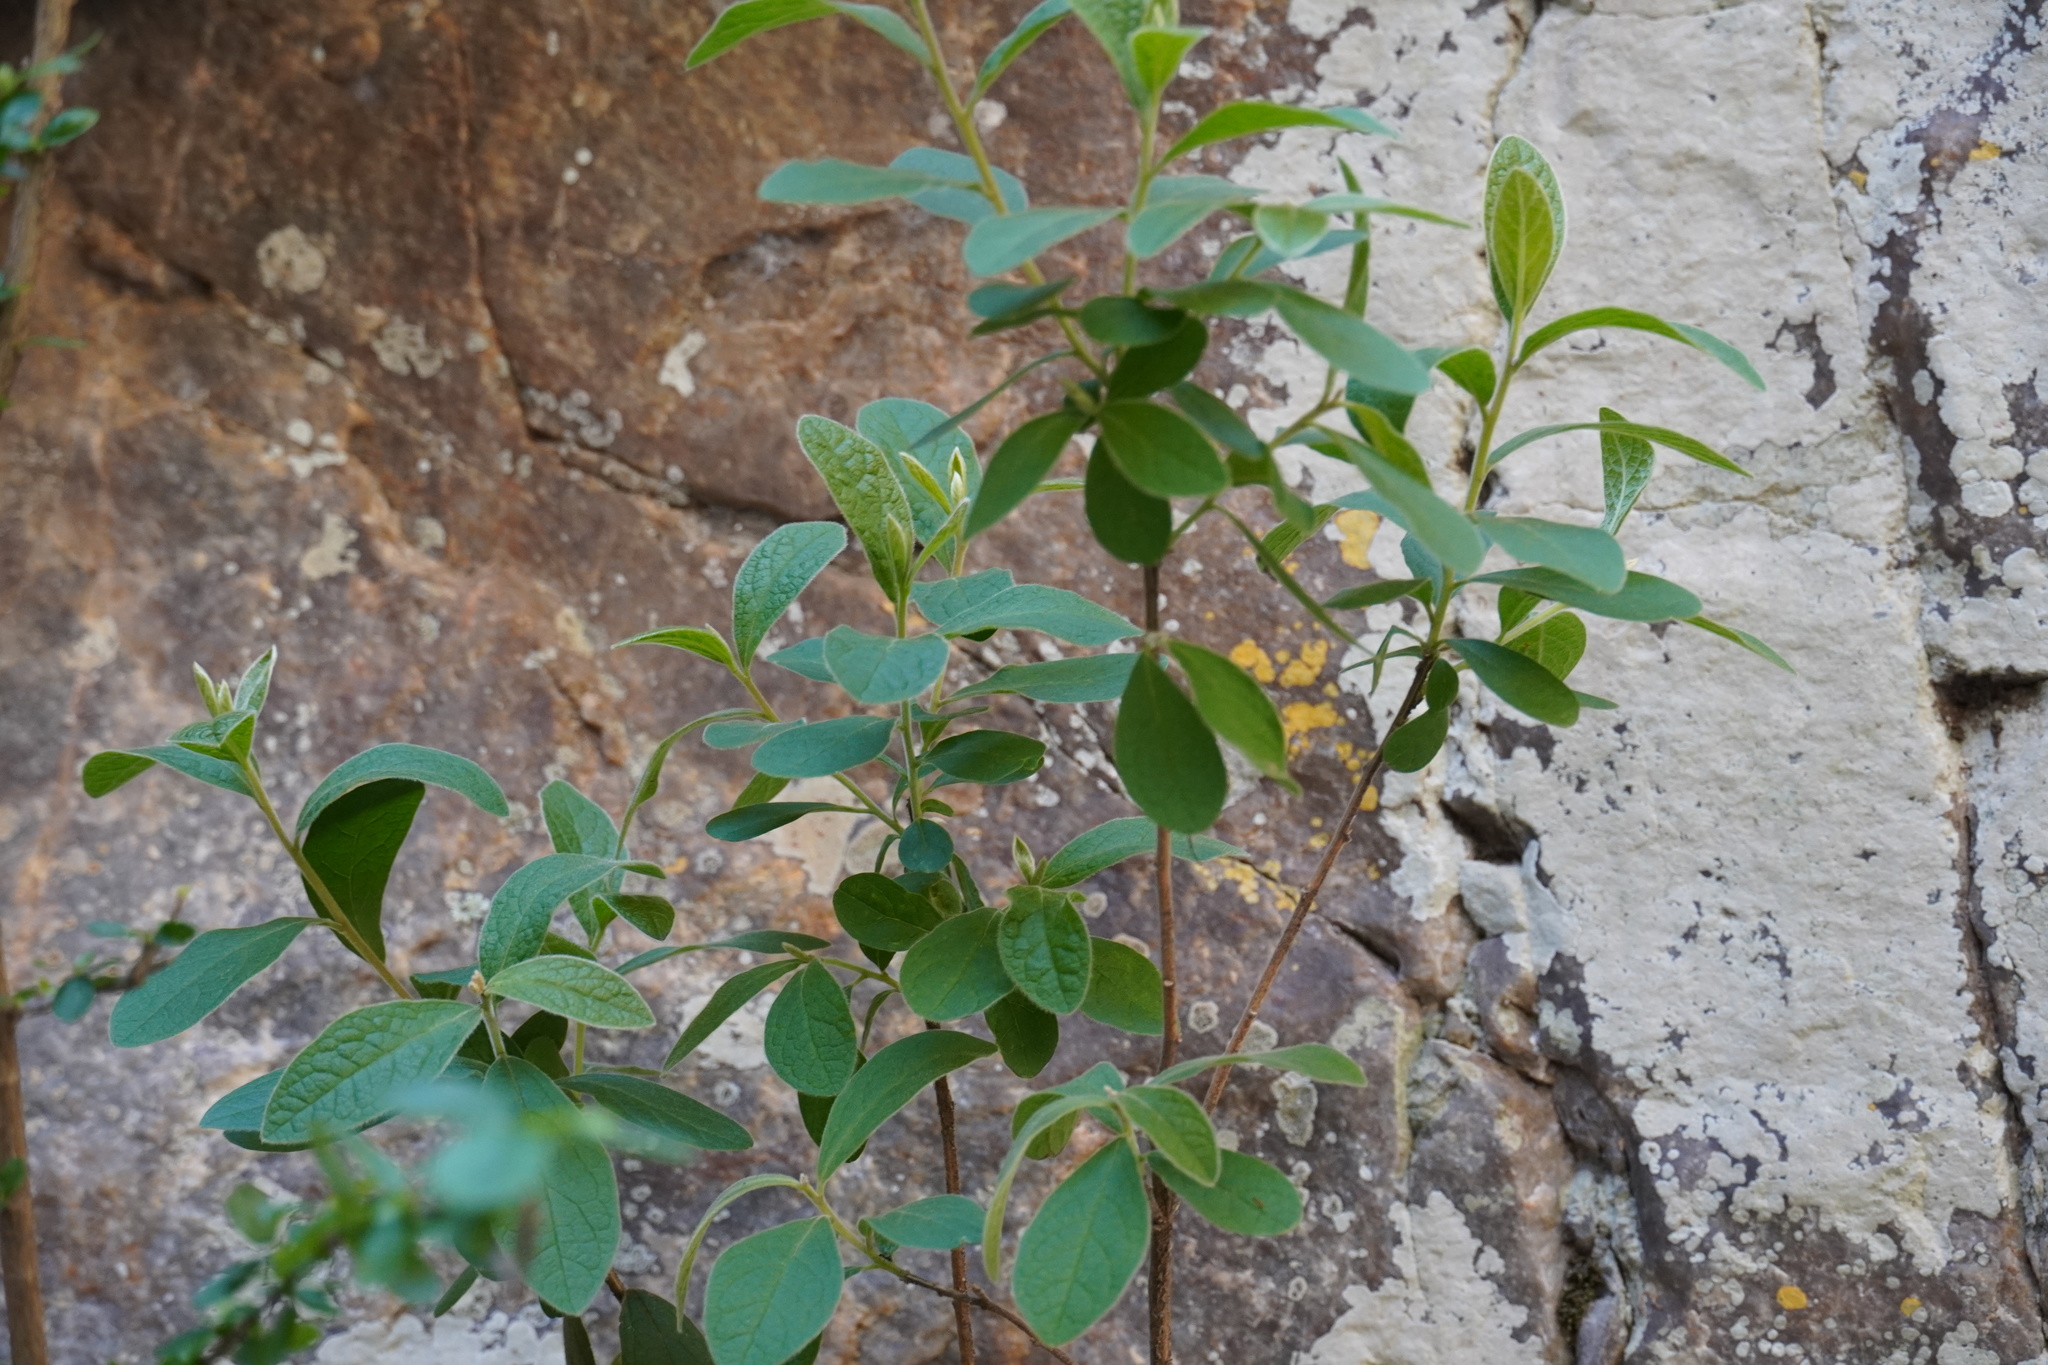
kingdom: Plantae
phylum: Tracheophyta
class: Magnoliopsida
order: Ericales
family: Ebenaceae
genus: Diospyros
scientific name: Diospyros lycioides
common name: Red star apple
